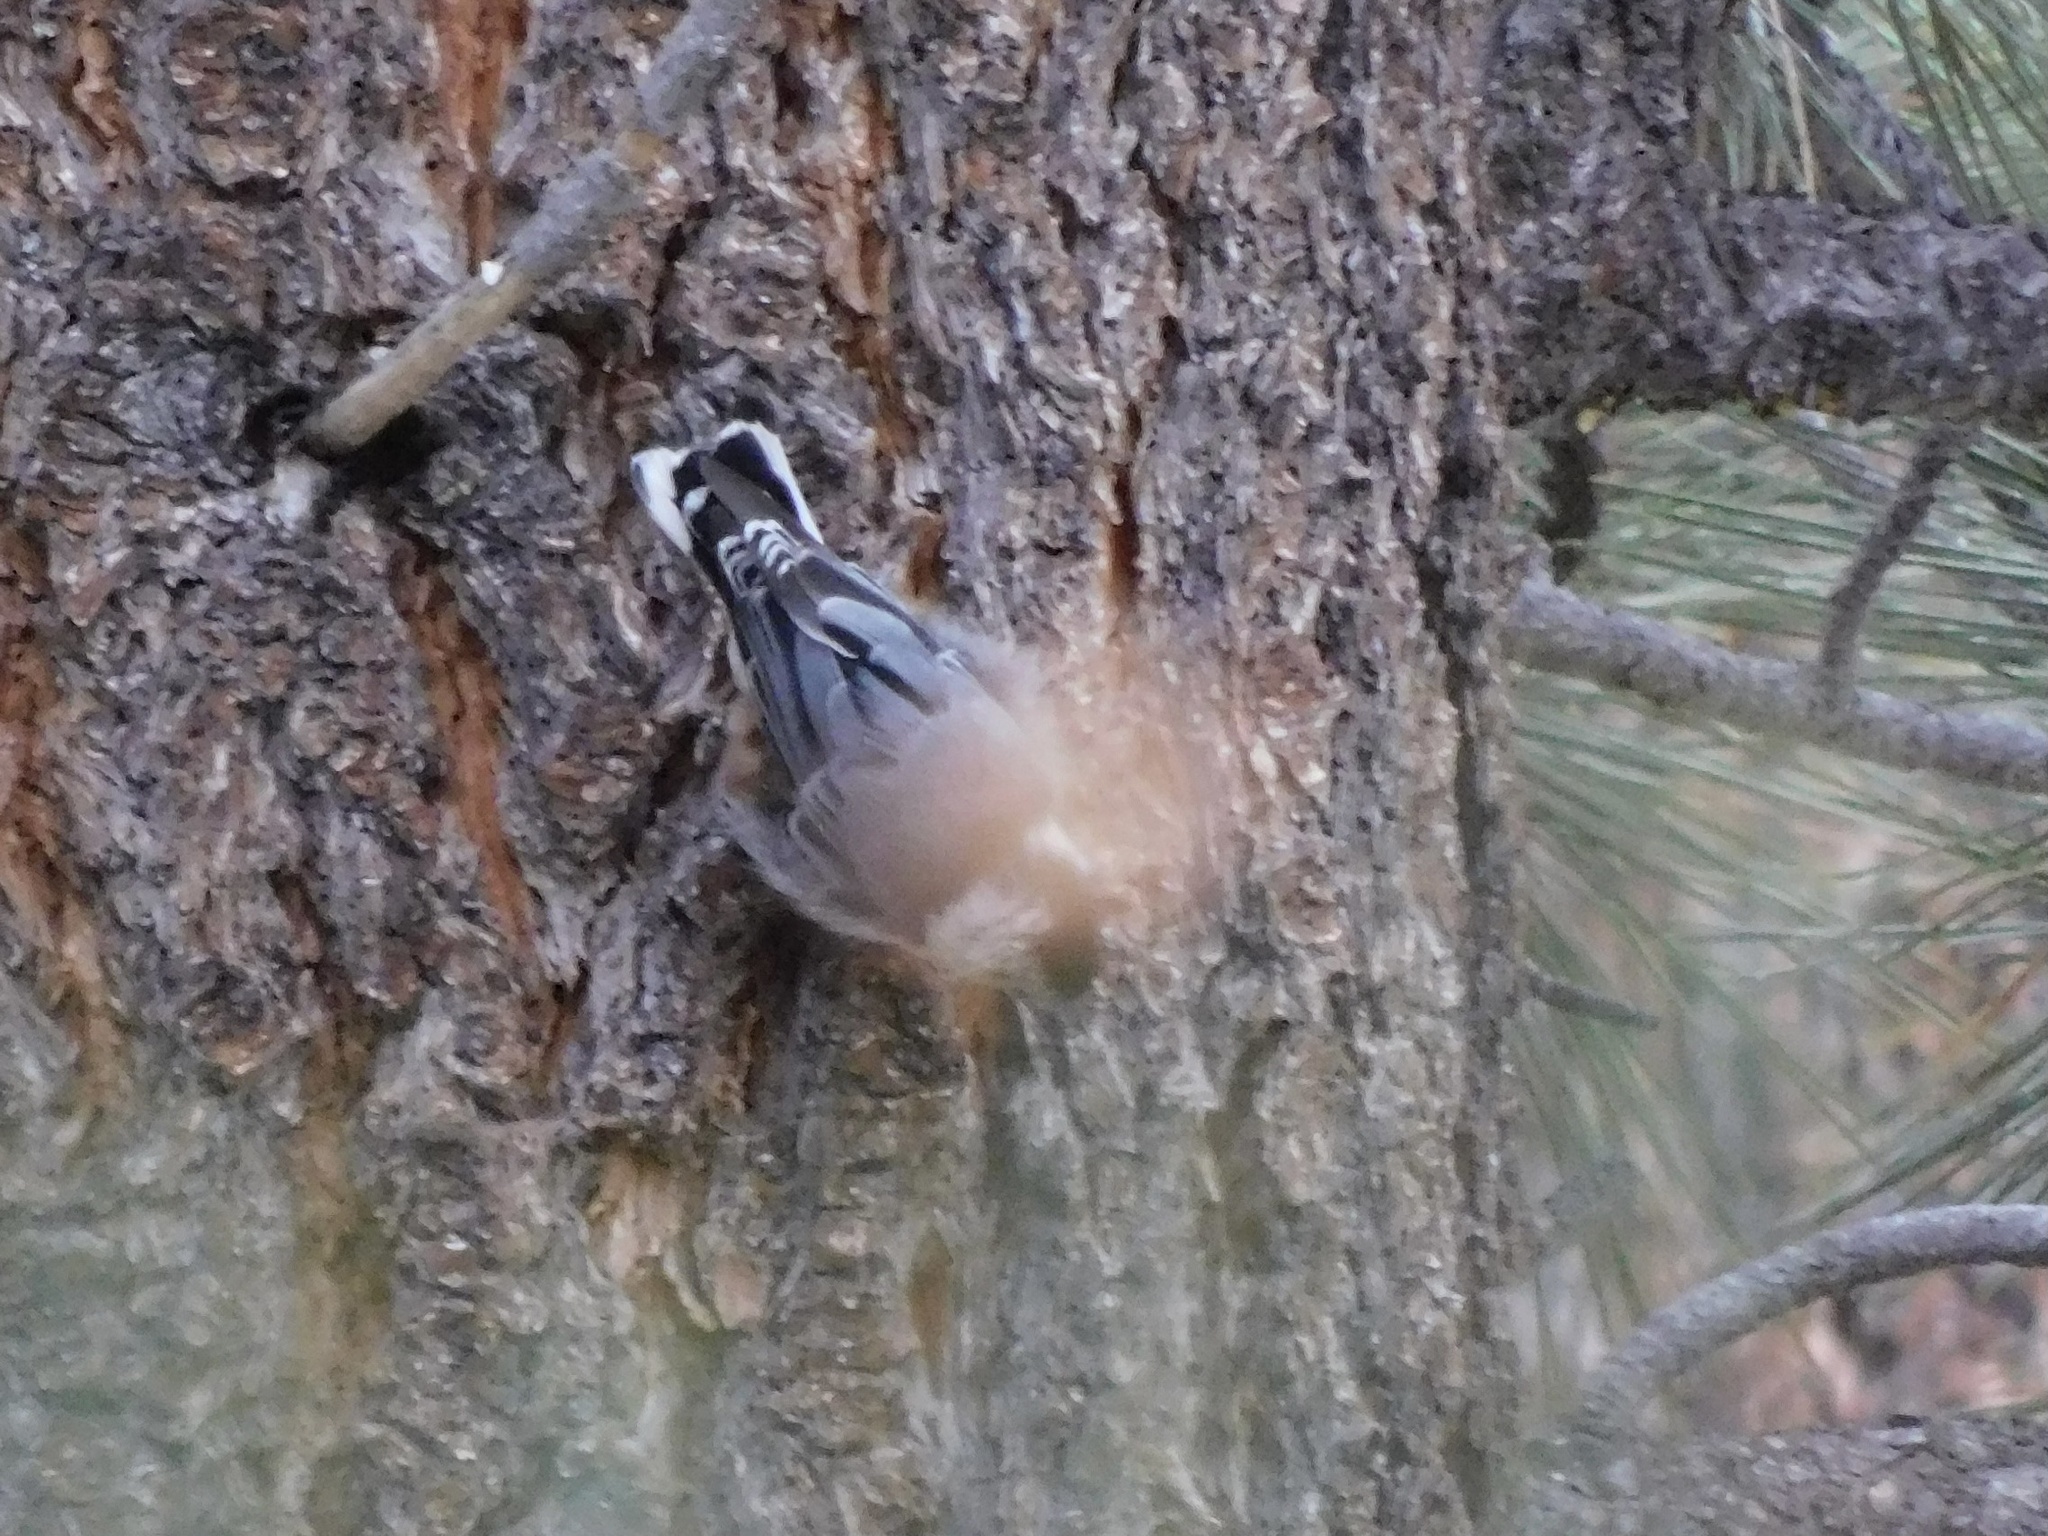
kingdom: Animalia
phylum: Chordata
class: Aves
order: Passeriformes
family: Sittidae
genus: Sitta
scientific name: Sitta carolinensis
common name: White-breasted nuthatch
